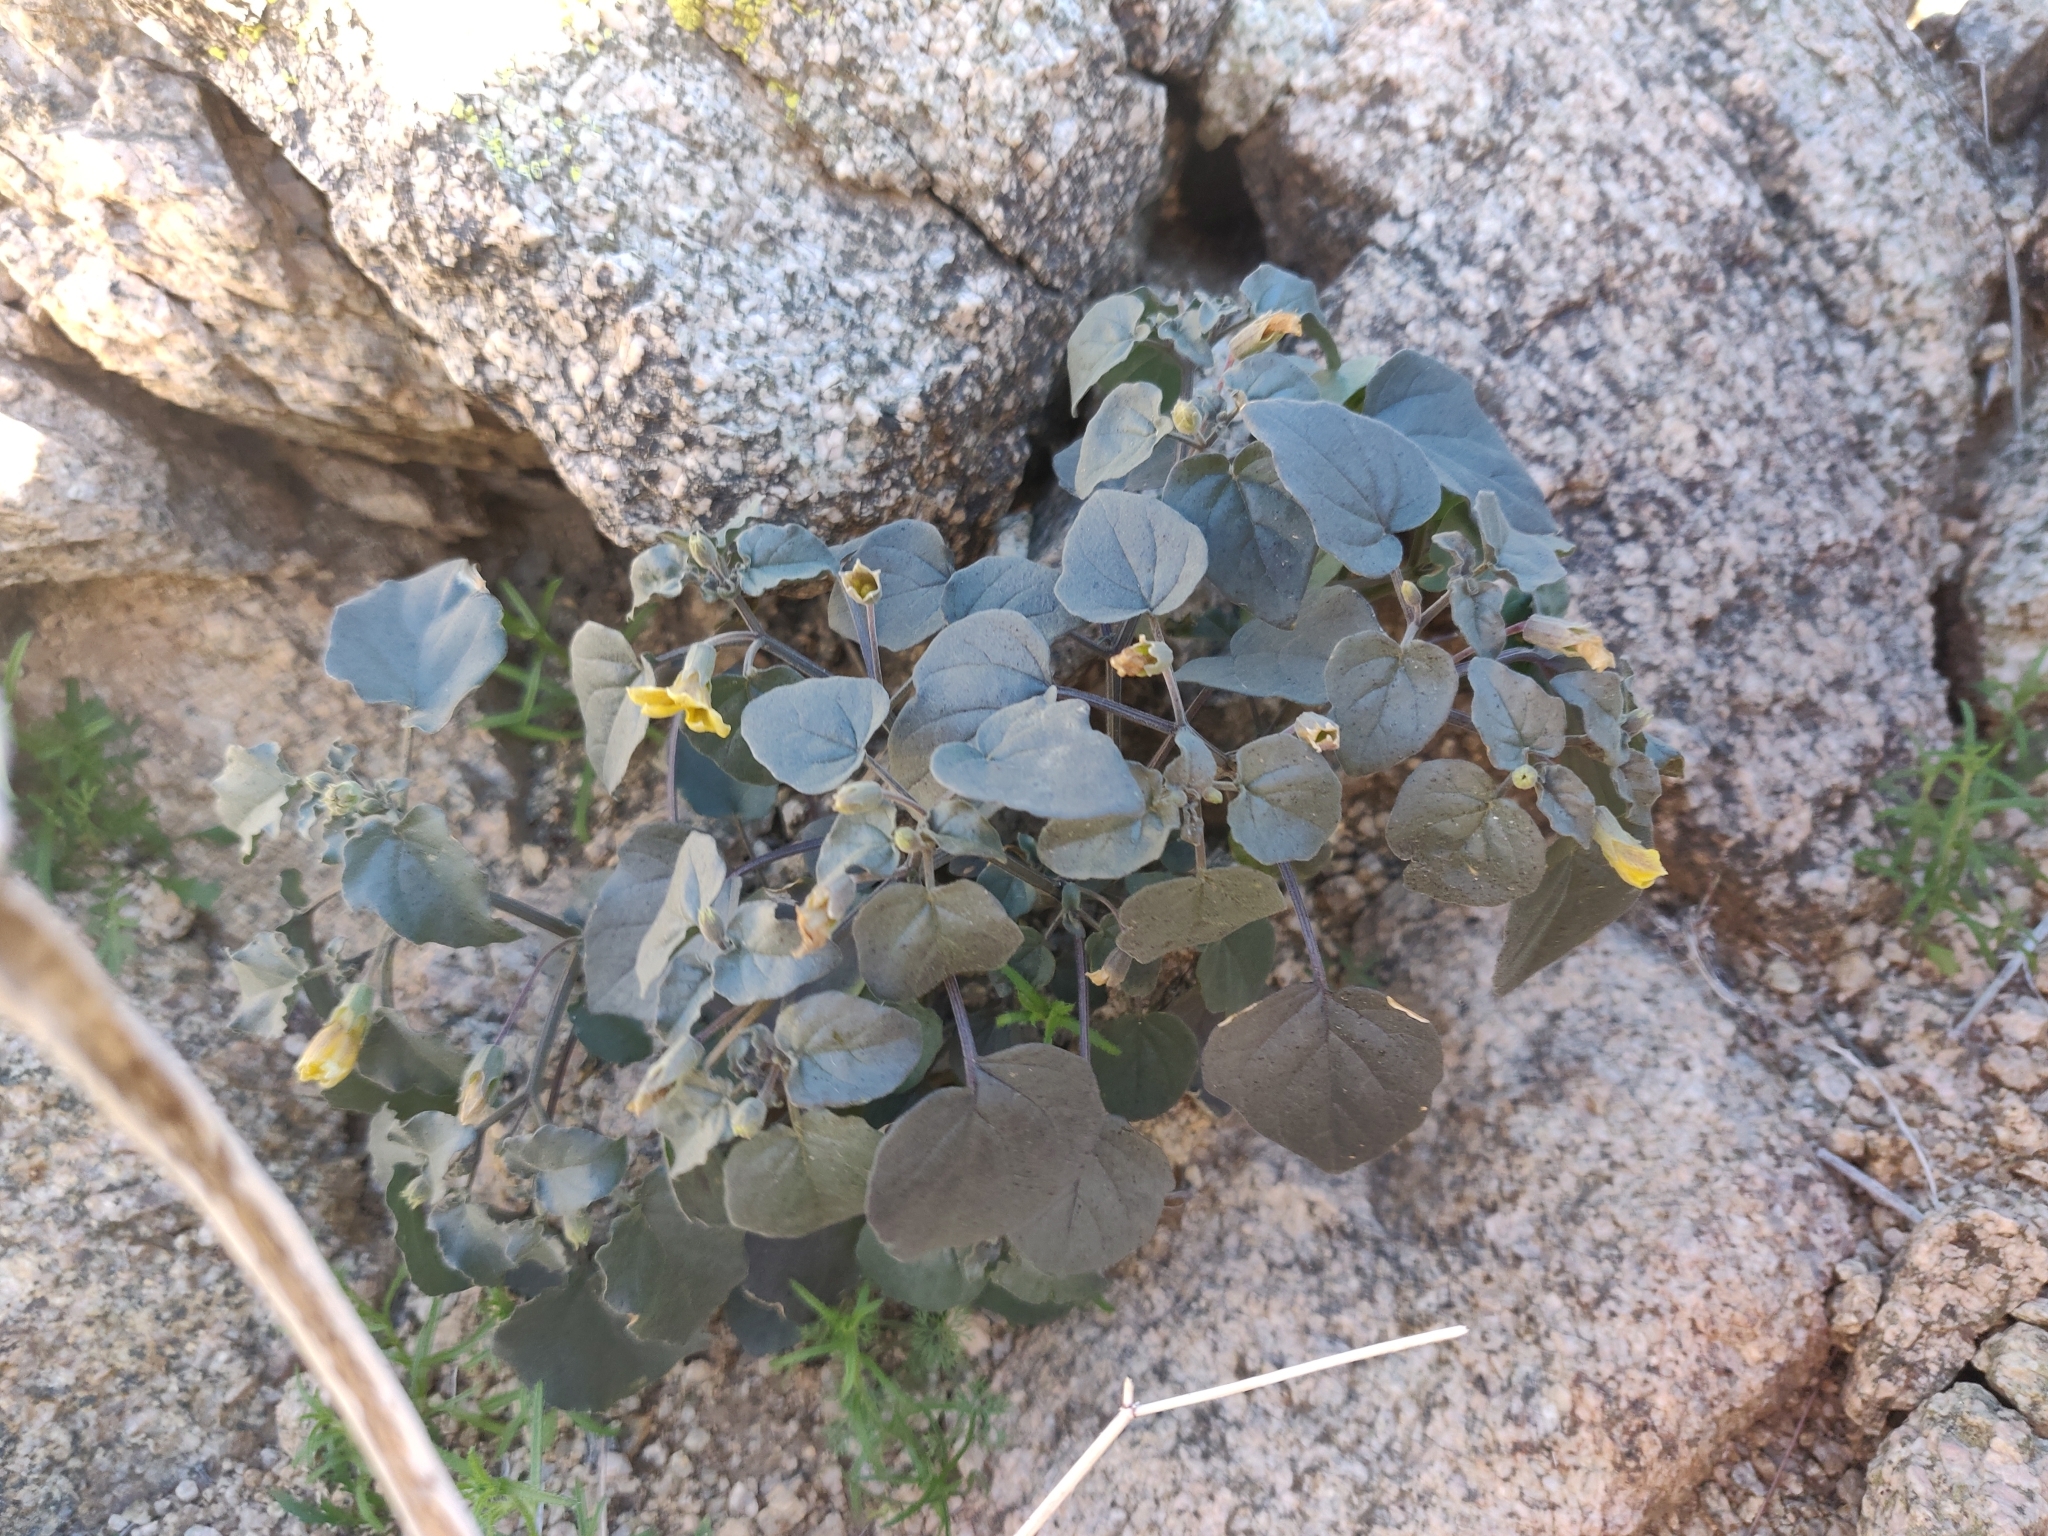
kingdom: Plantae
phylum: Tracheophyta
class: Magnoliopsida
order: Solanales
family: Solanaceae
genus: Physalis
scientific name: Physalis crassifolia
